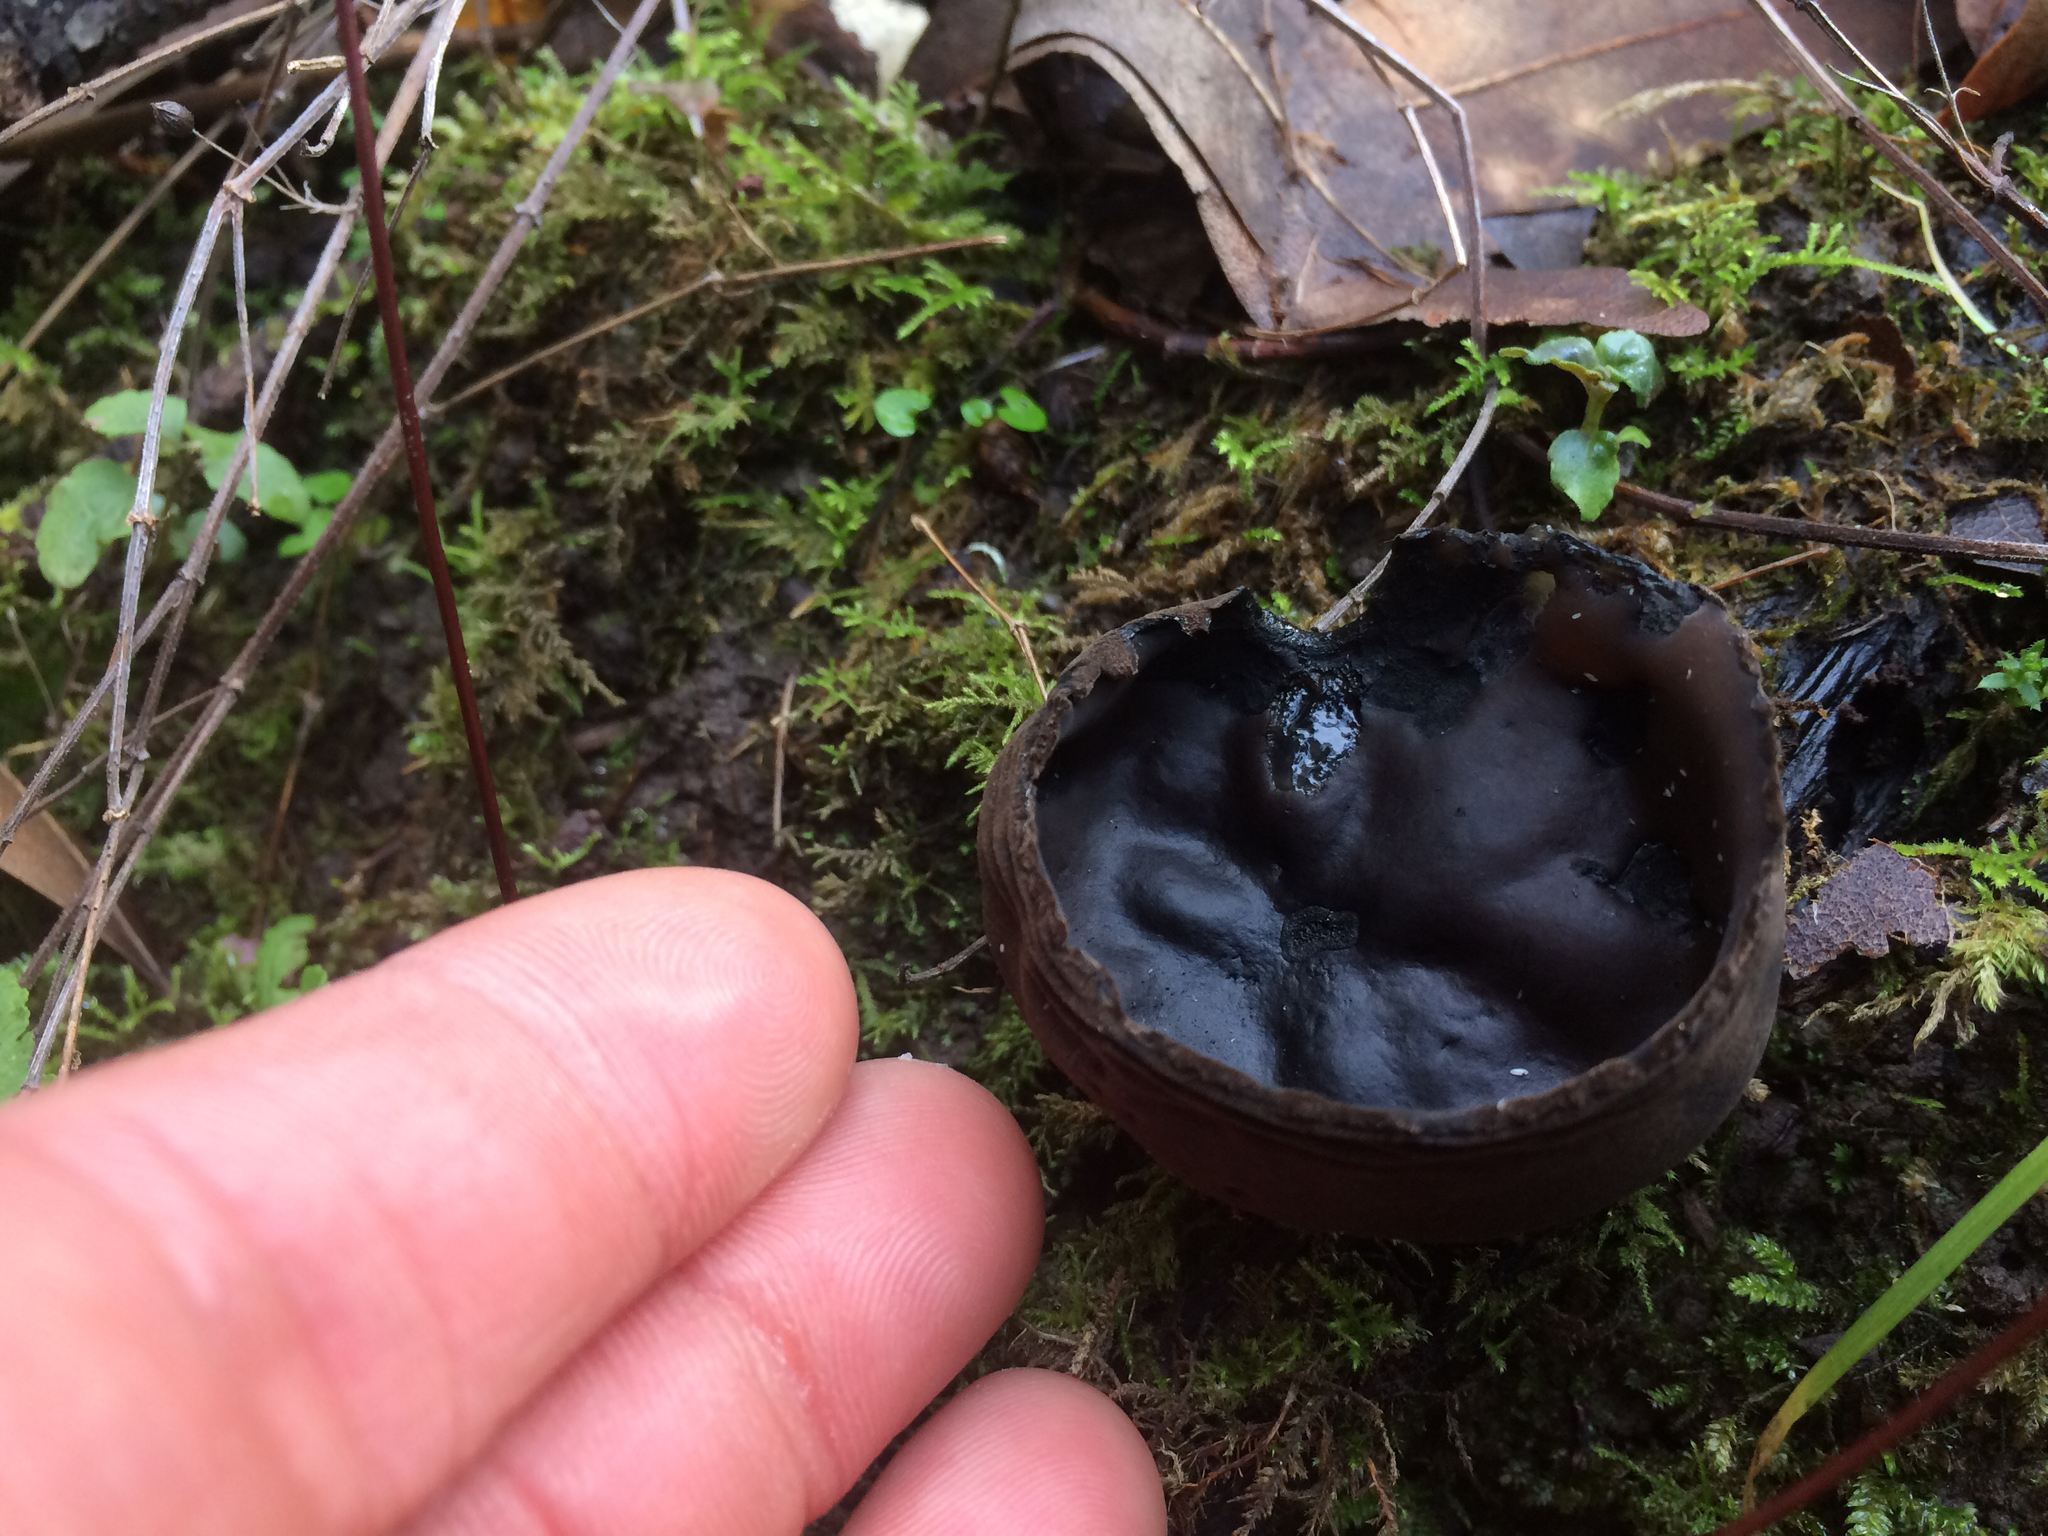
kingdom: Fungi
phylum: Ascomycota
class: Pezizomycetes
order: Pezizales
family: Sarcosomataceae
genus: Urnula
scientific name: Urnula padeniana
